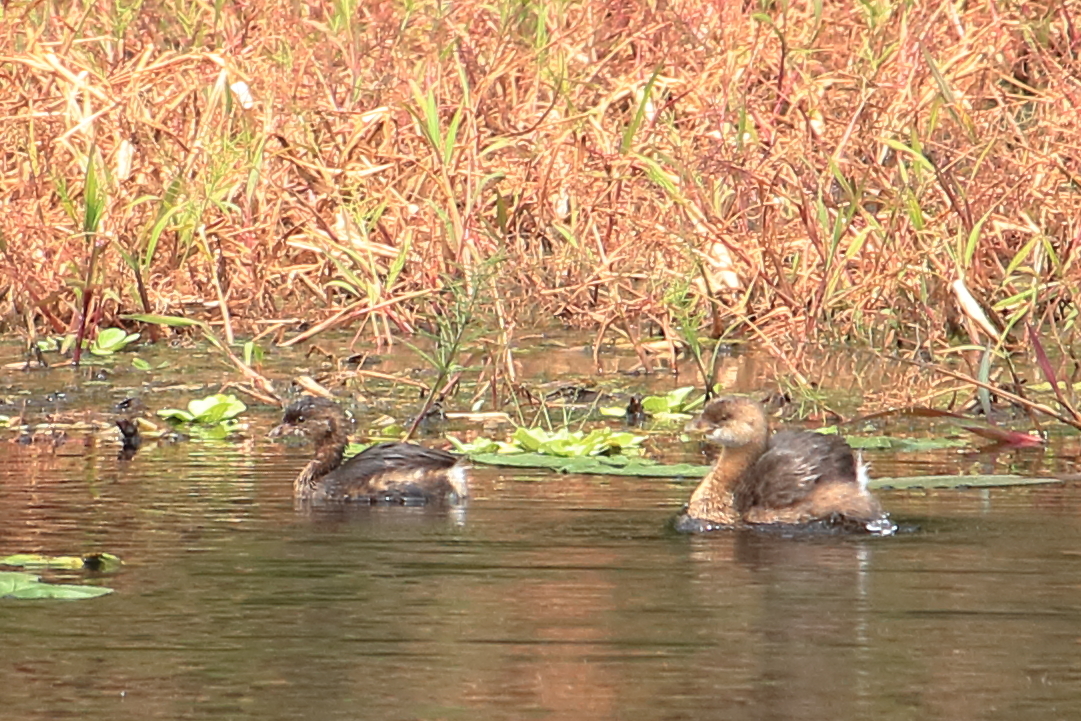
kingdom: Animalia
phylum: Chordata
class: Aves
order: Podicipediformes
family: Podicipedidae
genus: Podilymbus
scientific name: Podilymbus podiceps
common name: Pied-billed grebe
